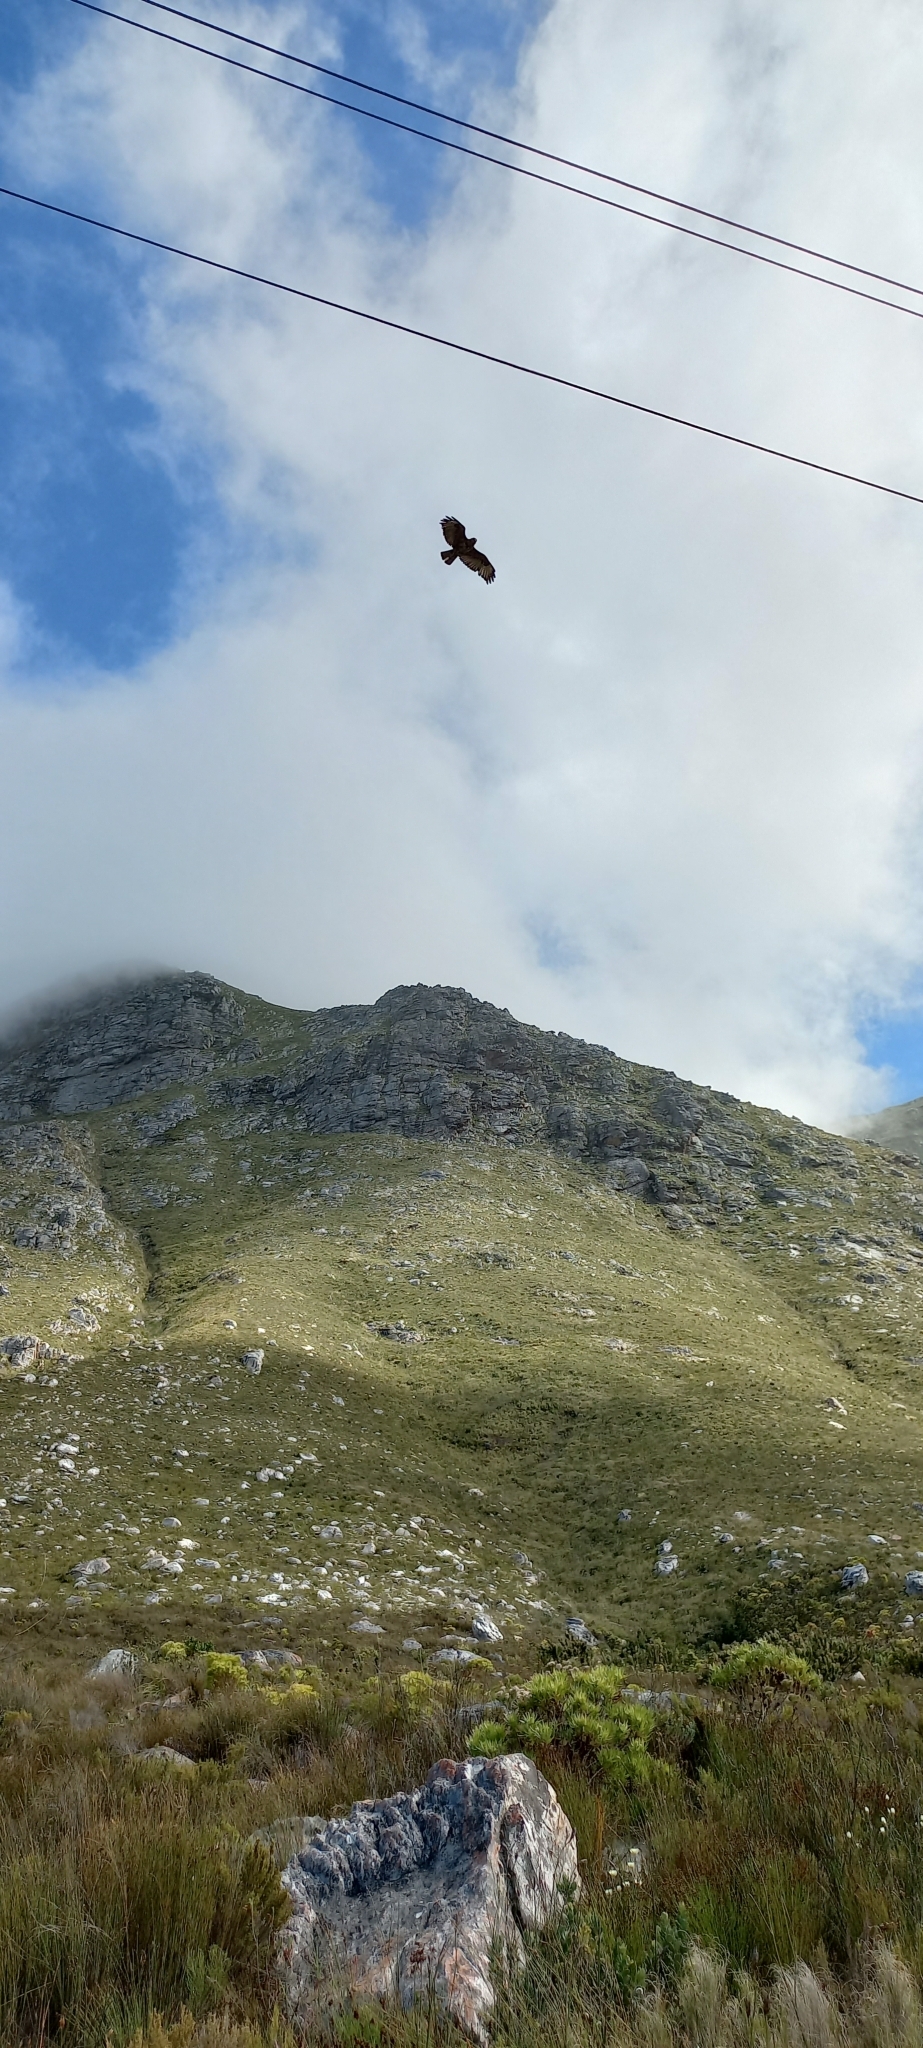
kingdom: Animalia
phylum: Chordata
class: Aves
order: Accipitriformes
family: Accipitridae
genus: Buteo
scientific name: Buteo buteo
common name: Common buzzard
